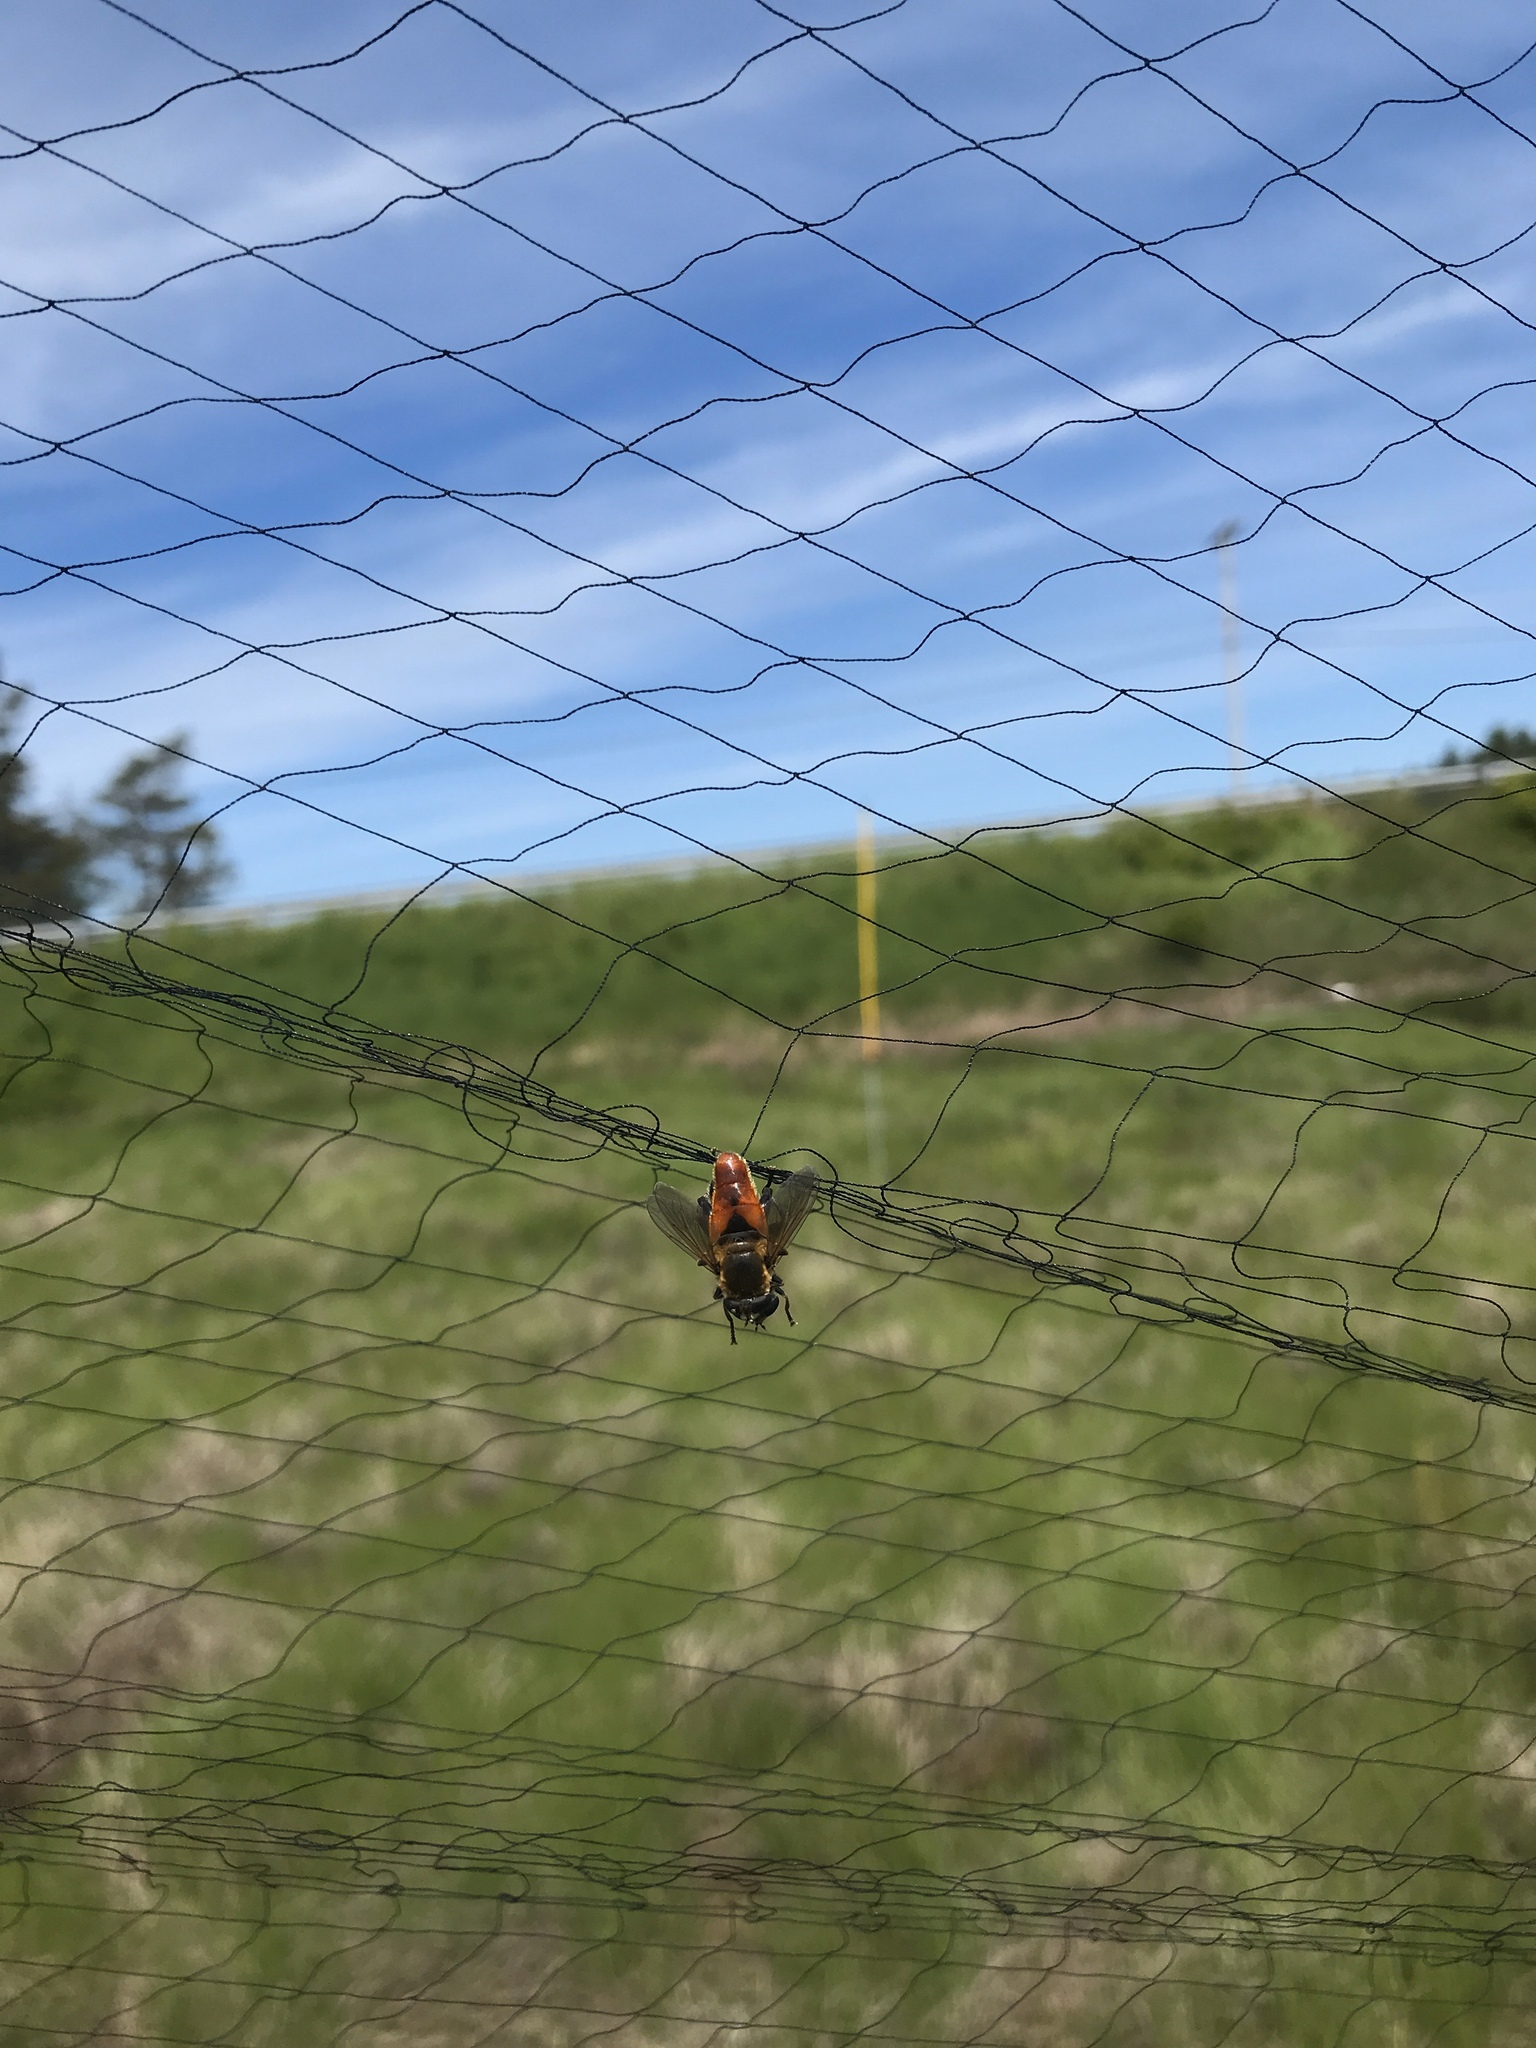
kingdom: Animalia
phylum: Arthropoda
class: Insecta
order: Diptera
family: Syrphidae
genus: Polydontomyia
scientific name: Polydontomyia curvipes
